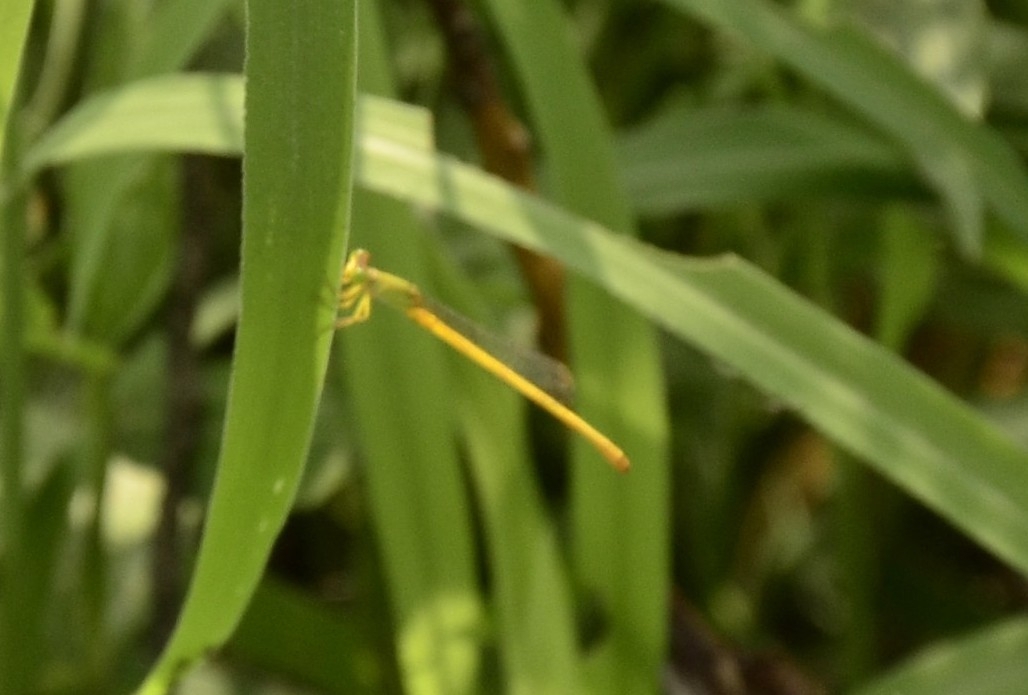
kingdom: Animalia
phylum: Arthropoda
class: Insecta
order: Odonata
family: Coenagrionidae
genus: Ceriagrion
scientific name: Ceriagrion coromandelianum
